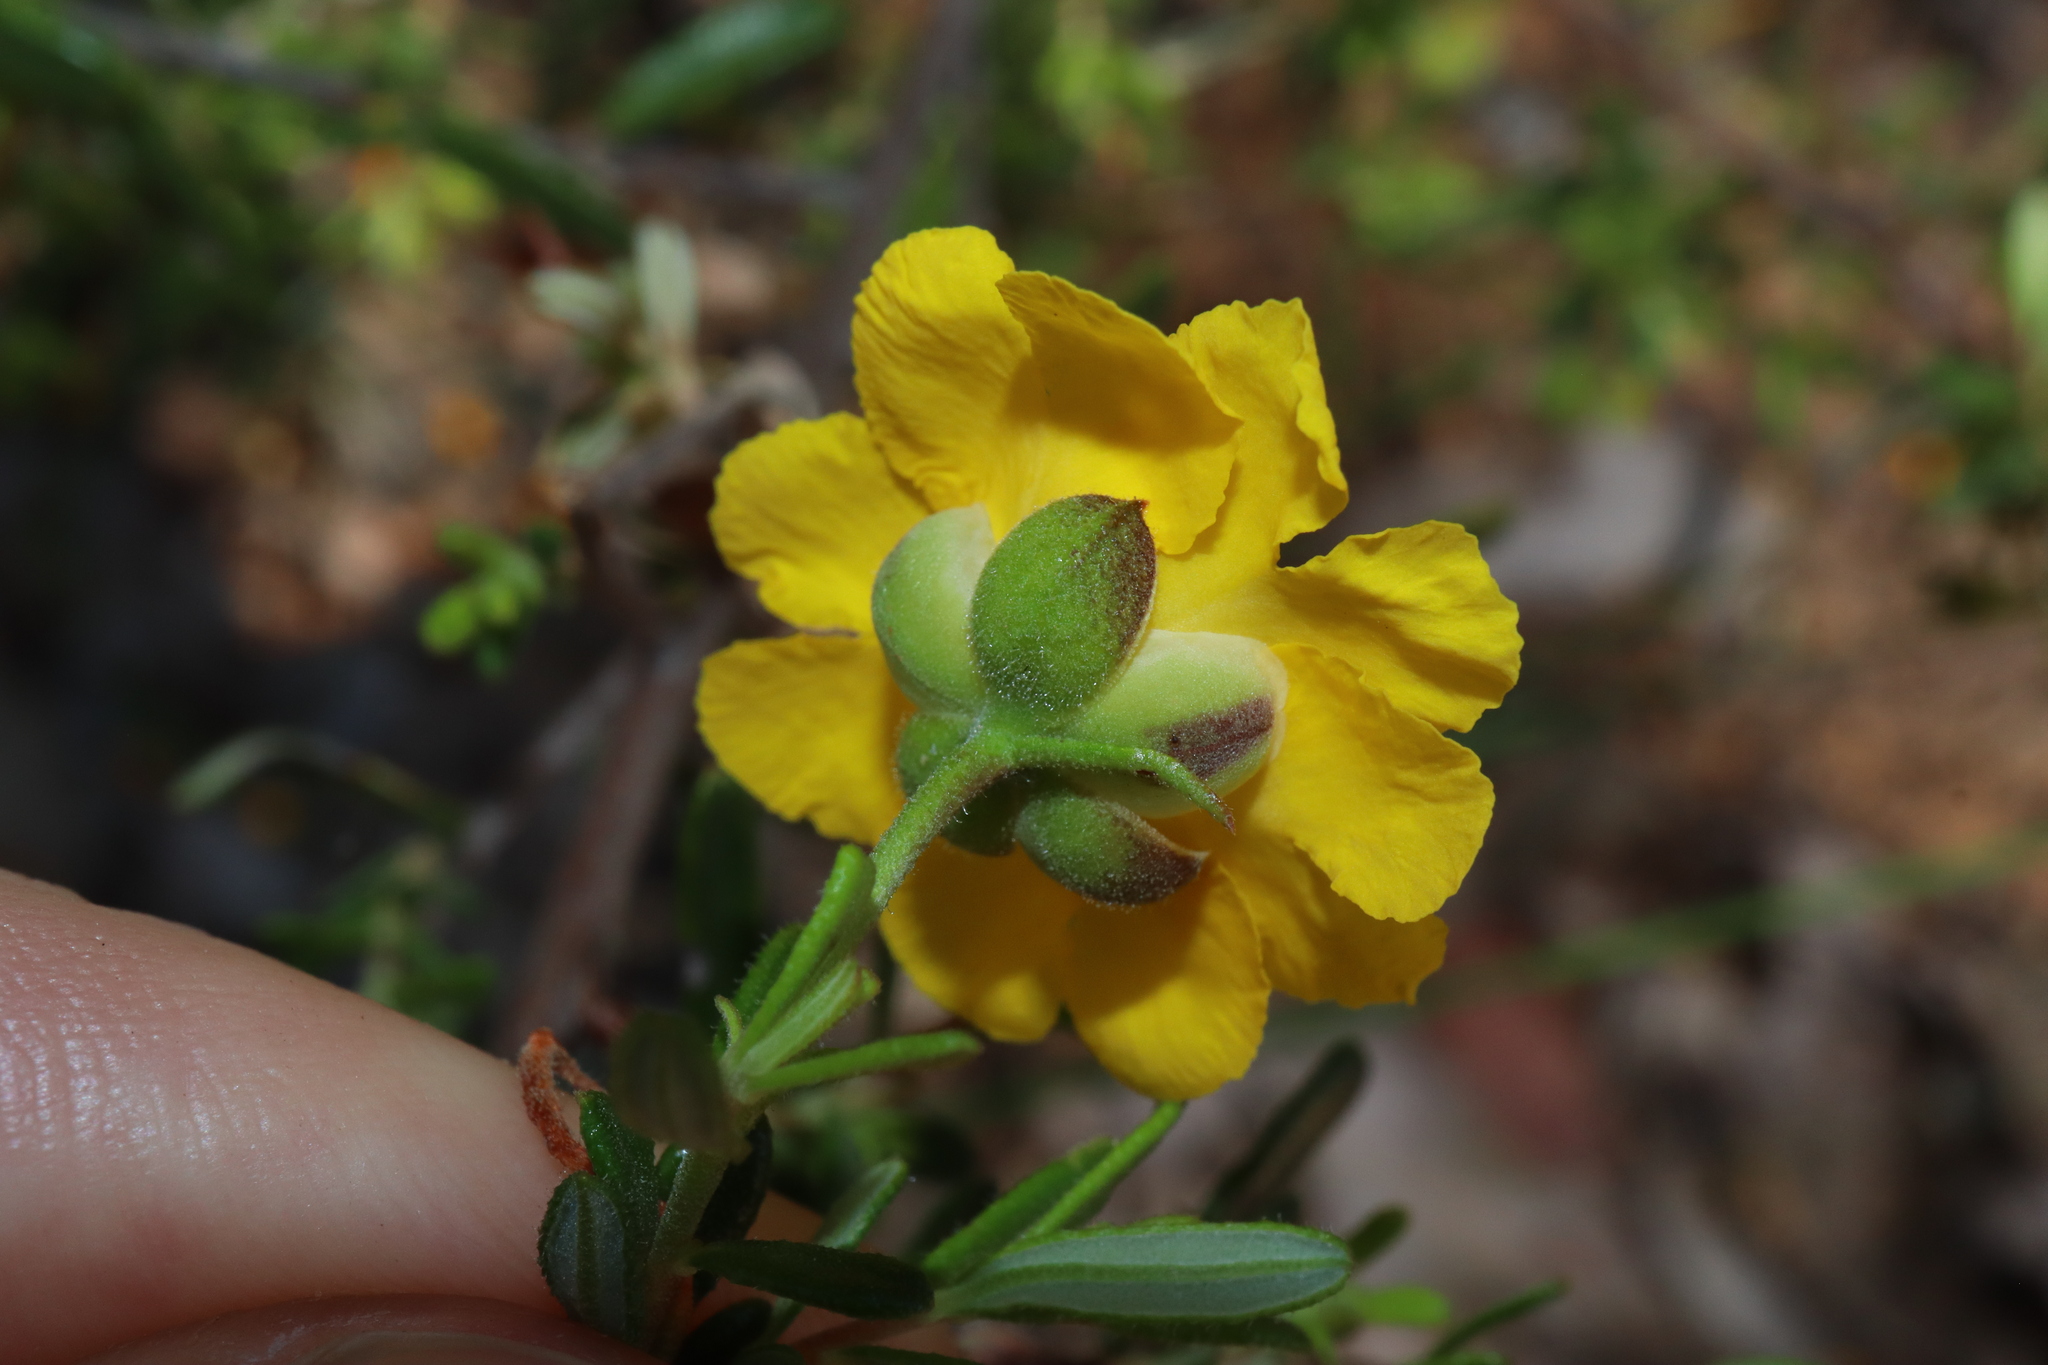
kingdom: Plantae
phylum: Tracheophyta
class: Magnoliopsida
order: Dilleniales
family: Dilleniaceae
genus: Hibbertia
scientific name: Hibbertia hypericoides
